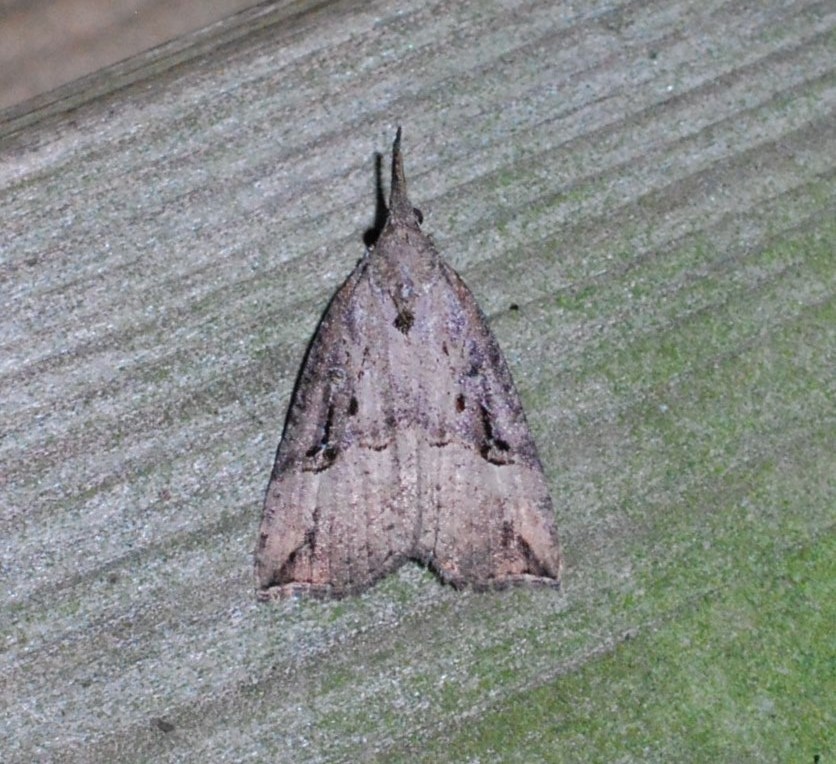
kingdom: Animalia
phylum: Arthropoda
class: Insecta
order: Lepidoptera
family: Erebidae
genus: Hypena
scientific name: Hypena rostralis
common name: Buttoned snout
